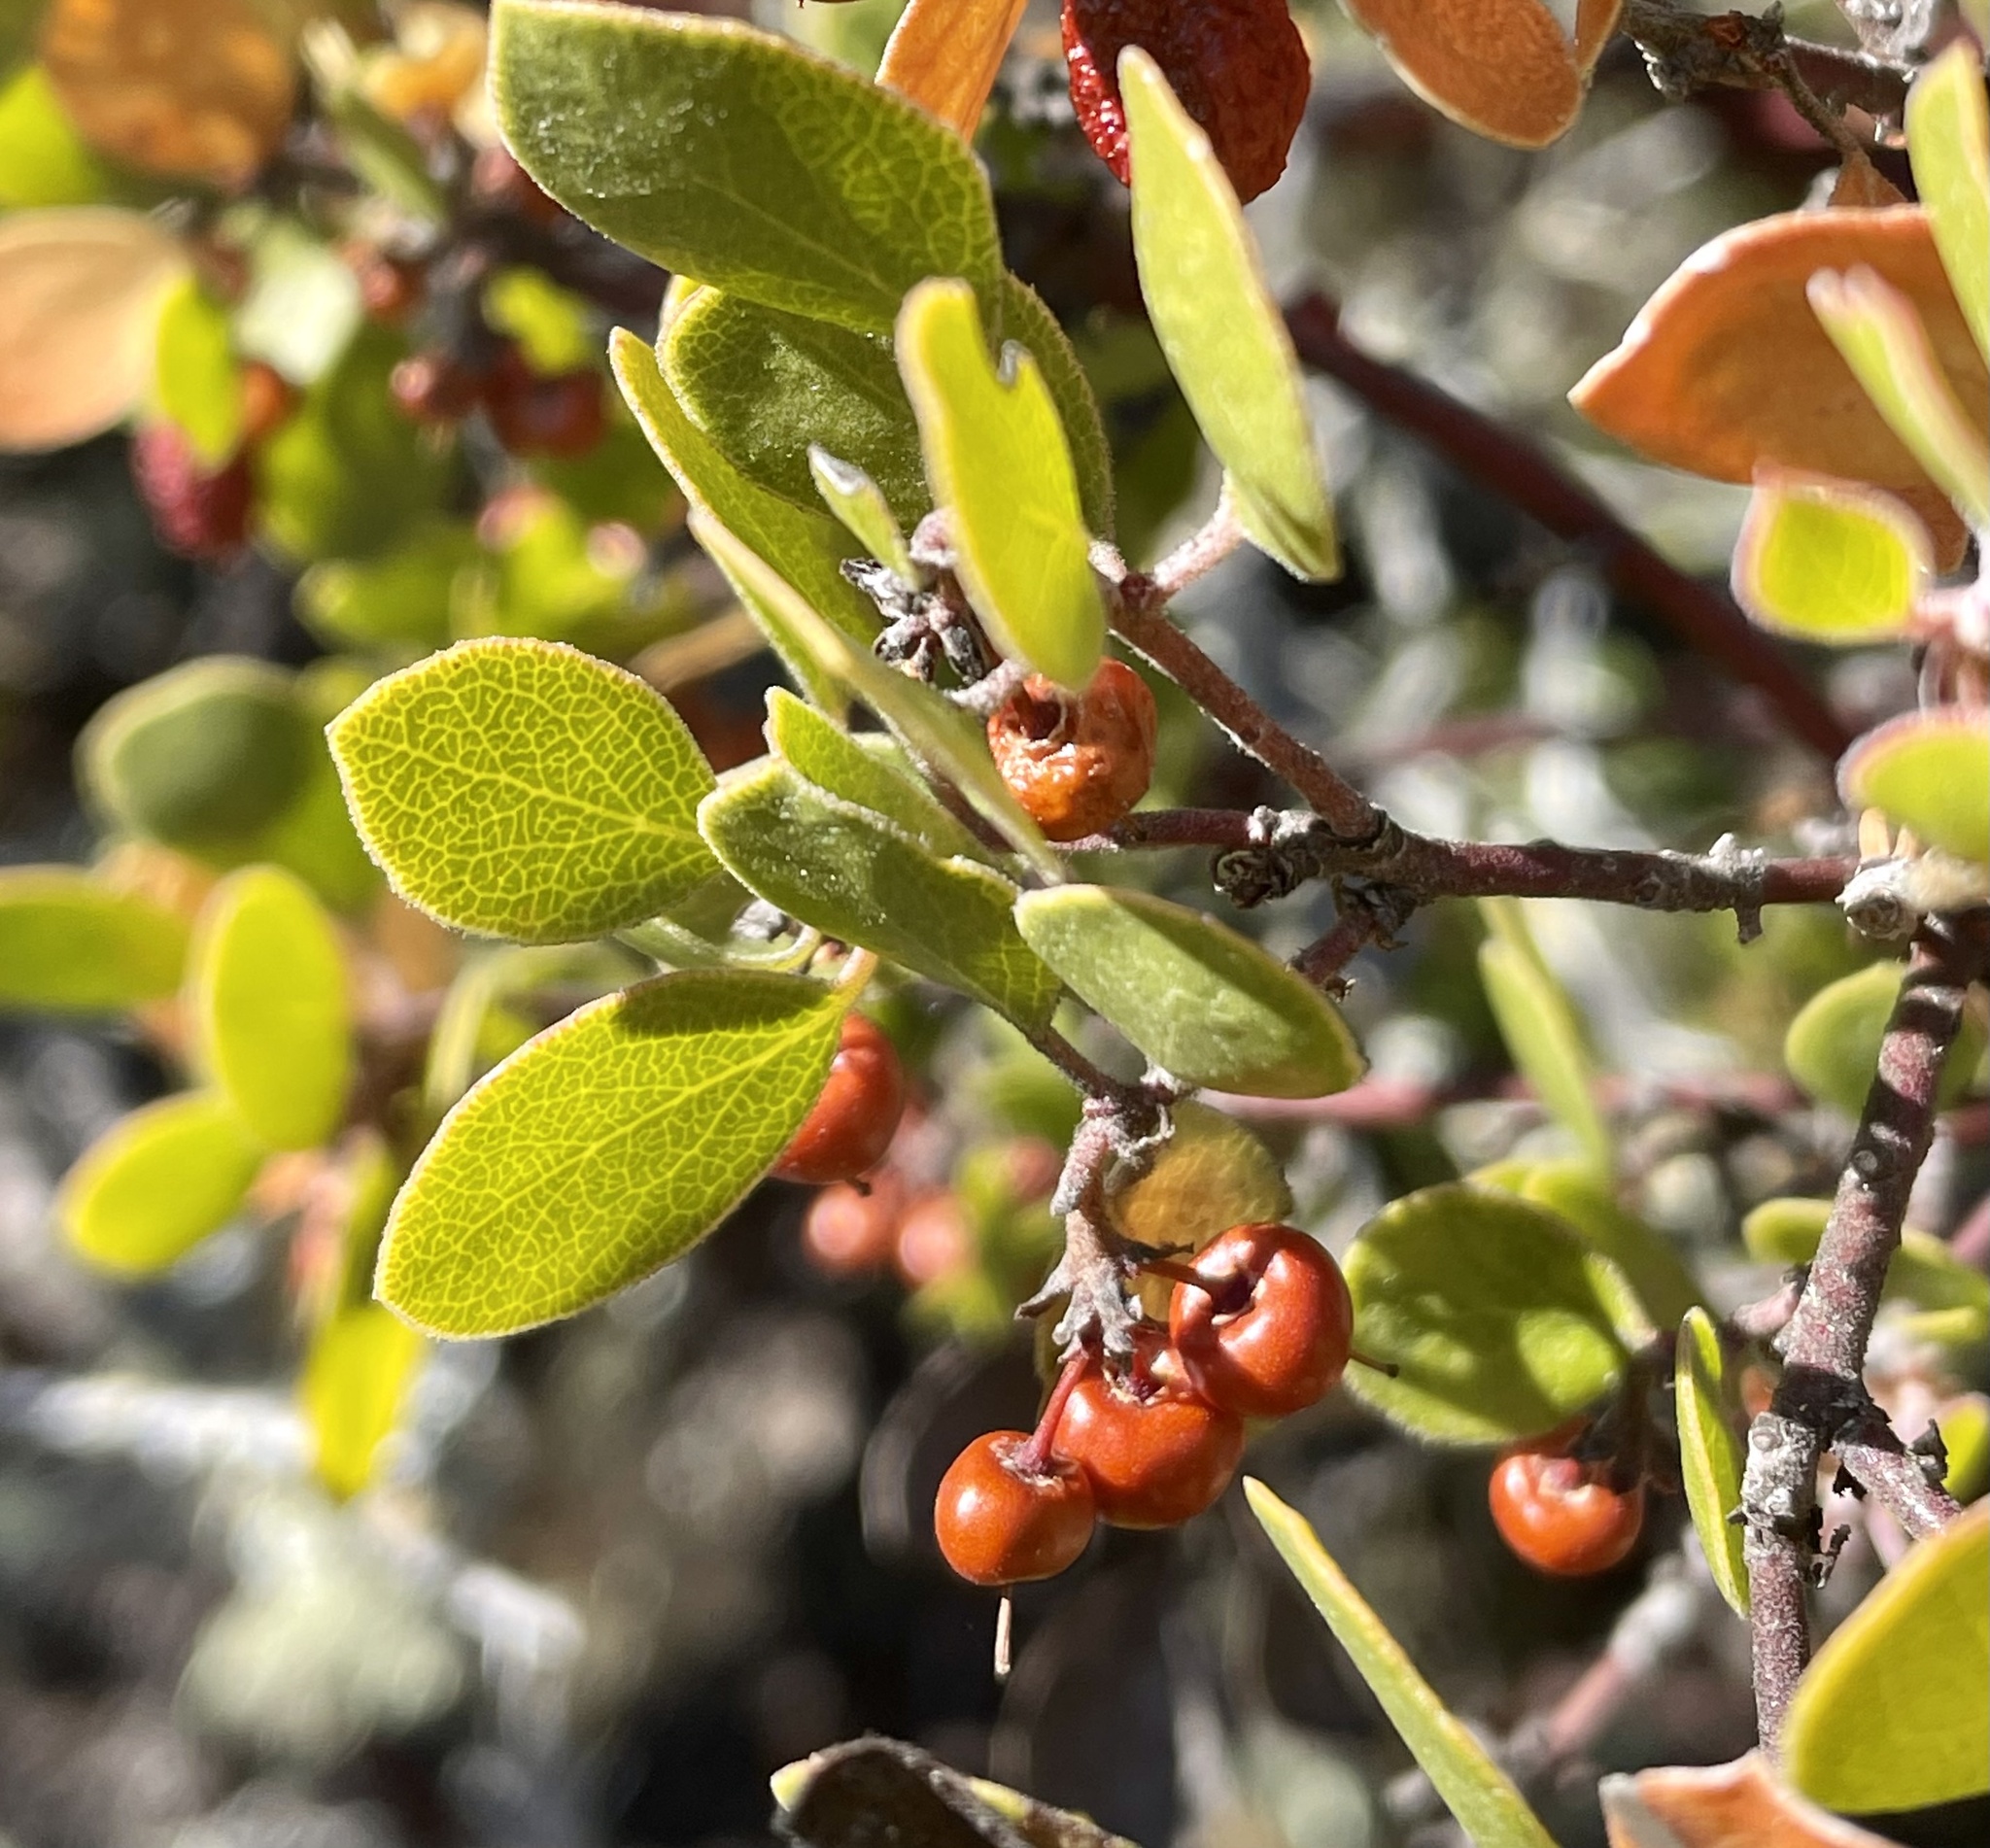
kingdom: Plantae
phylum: Tracheophyta
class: Magnoliopsida
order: Ericales
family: Ericaceae
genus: Arctostaphylos
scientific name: Arctostaphylos hookeri
